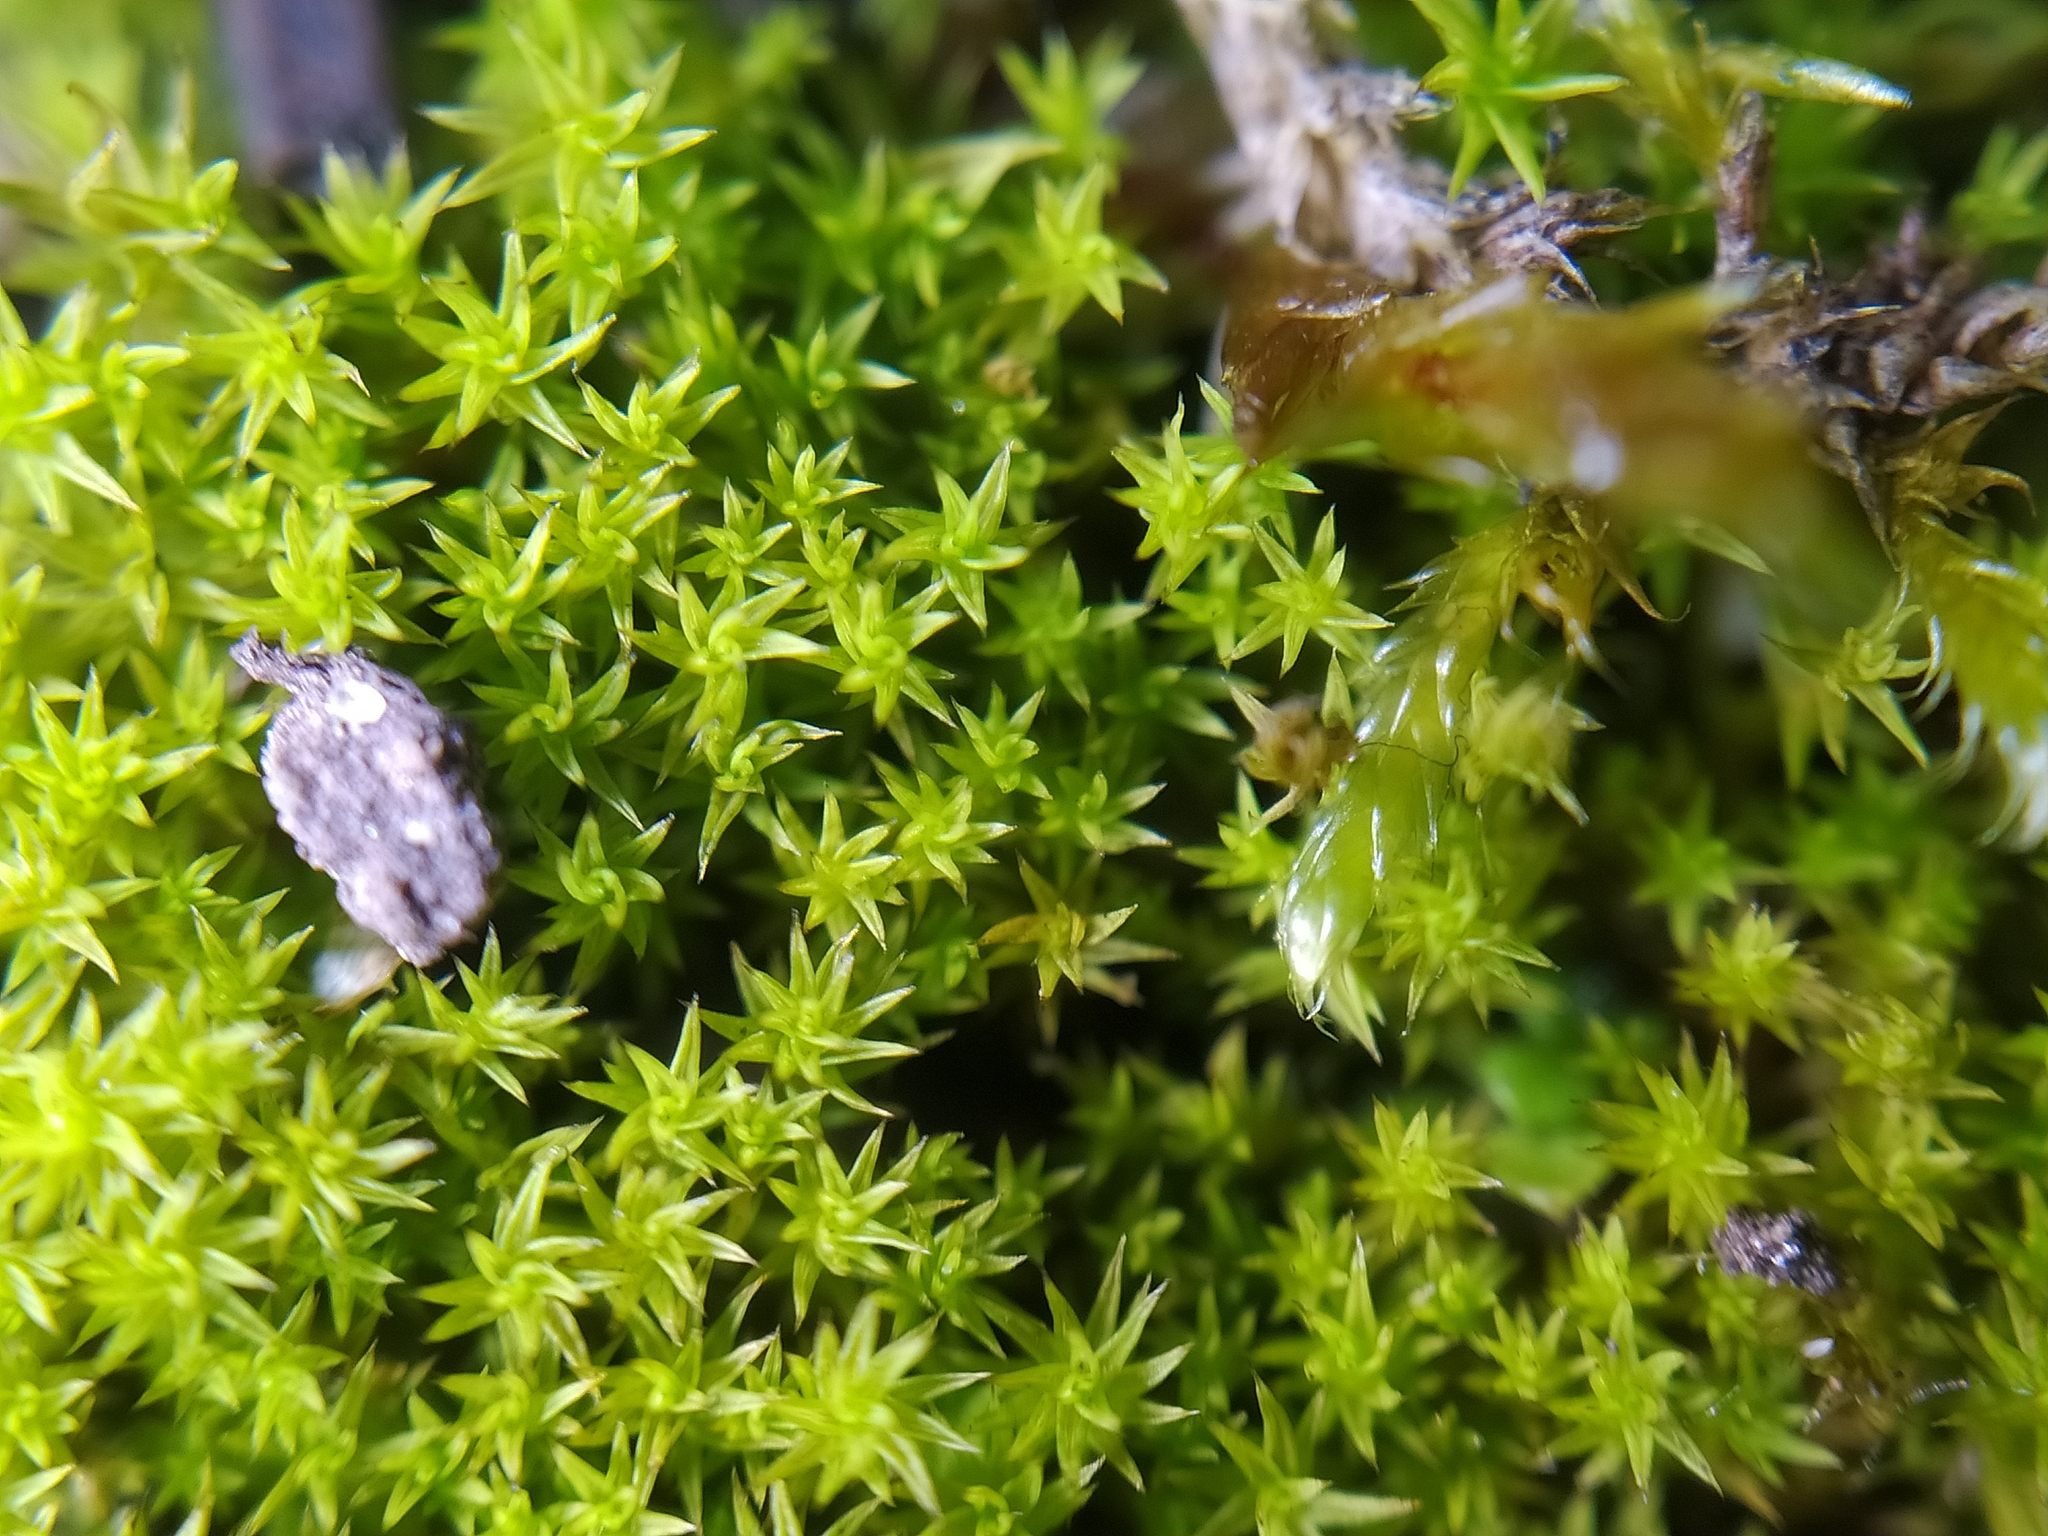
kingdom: Plantae
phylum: Bryophyta
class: Bryopsida
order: Pottiales
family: Pottiaceae
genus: Pseudocrossidium
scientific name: Pseudocrossidium hornschuchianum
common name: Hornschuch's beard-moss
